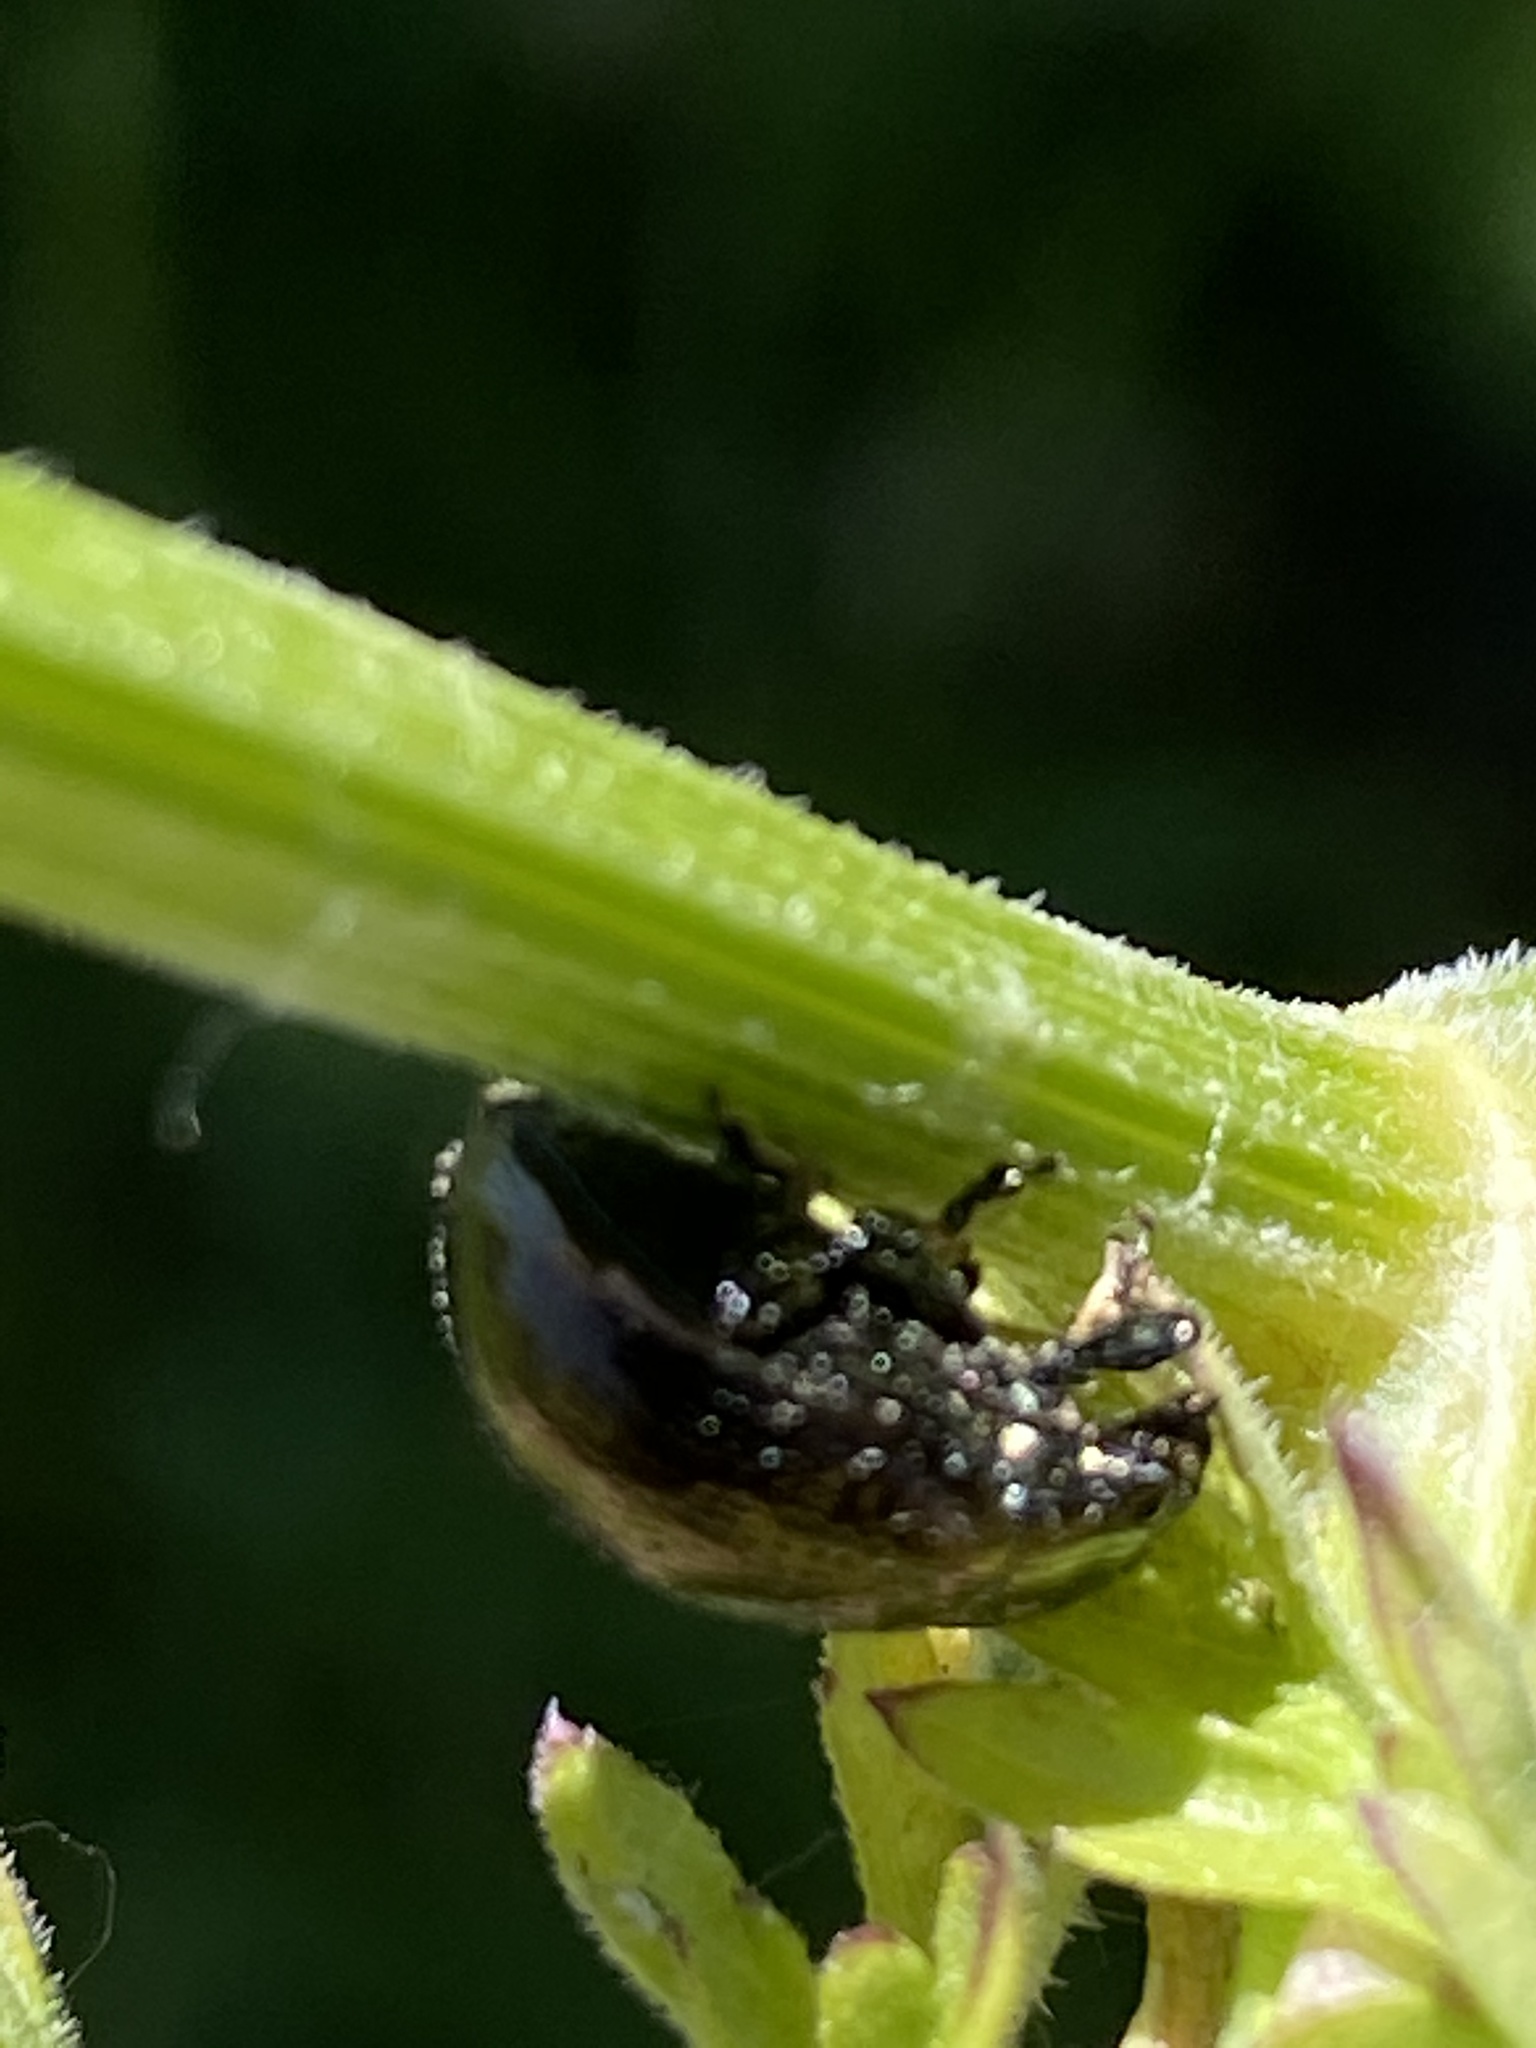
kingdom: Animalia
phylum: Arthropoda
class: Insecta
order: Coleoptera
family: Chrysomelidae
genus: Chrysolina
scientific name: Chrysolina oricalcia
